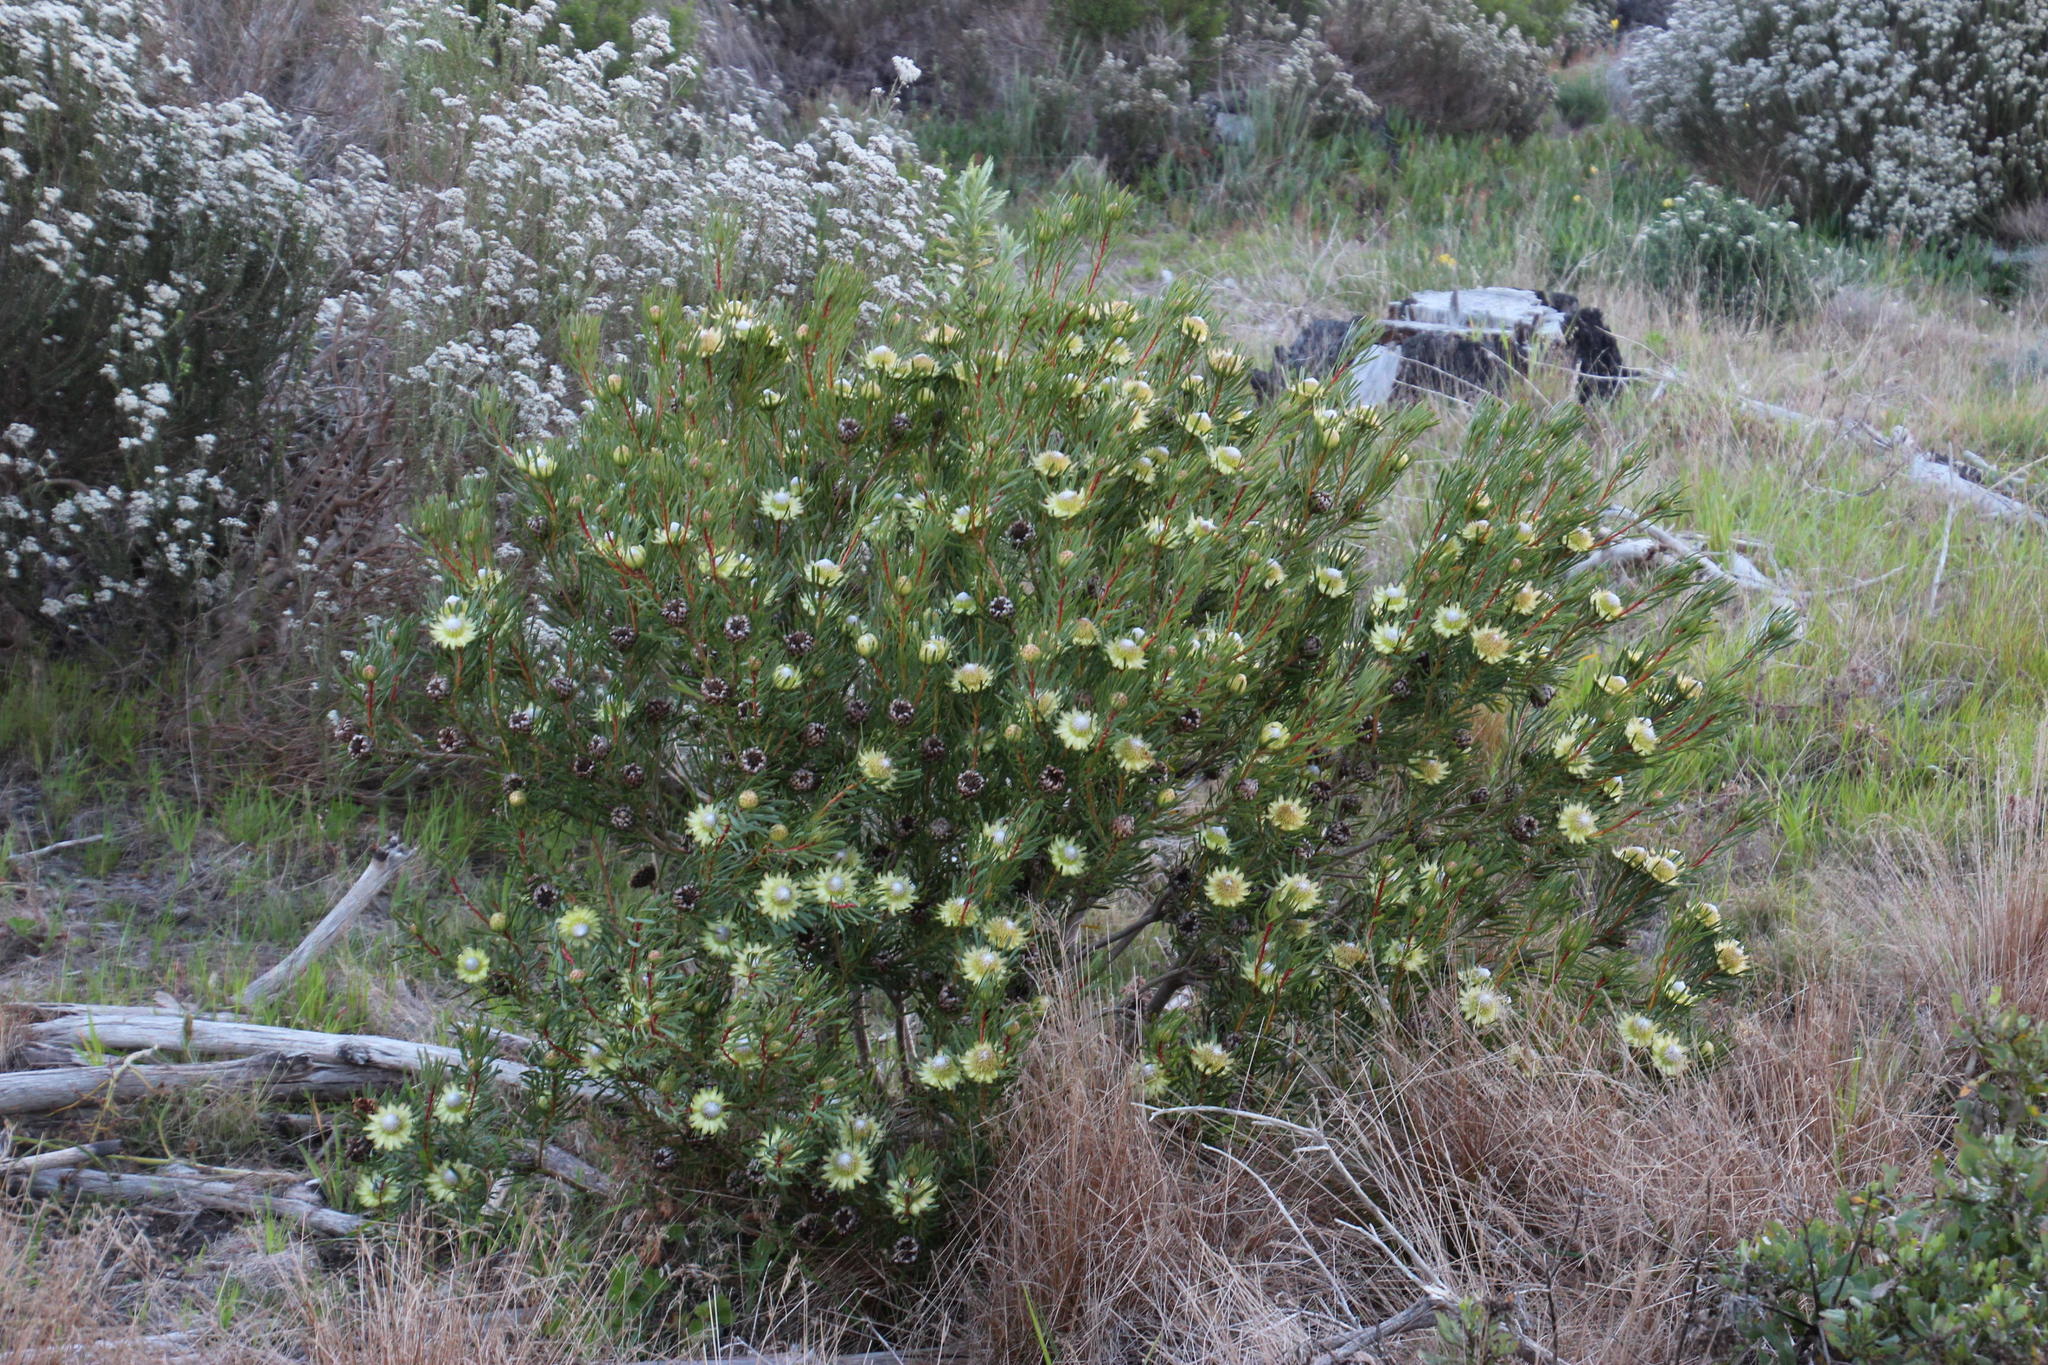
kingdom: Plantae
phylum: Tracheophyta
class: Magnoliopsida
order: Proteales
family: Proteaceae
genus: Protea
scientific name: Protea scolymocephala
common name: Thistle sugarbush
